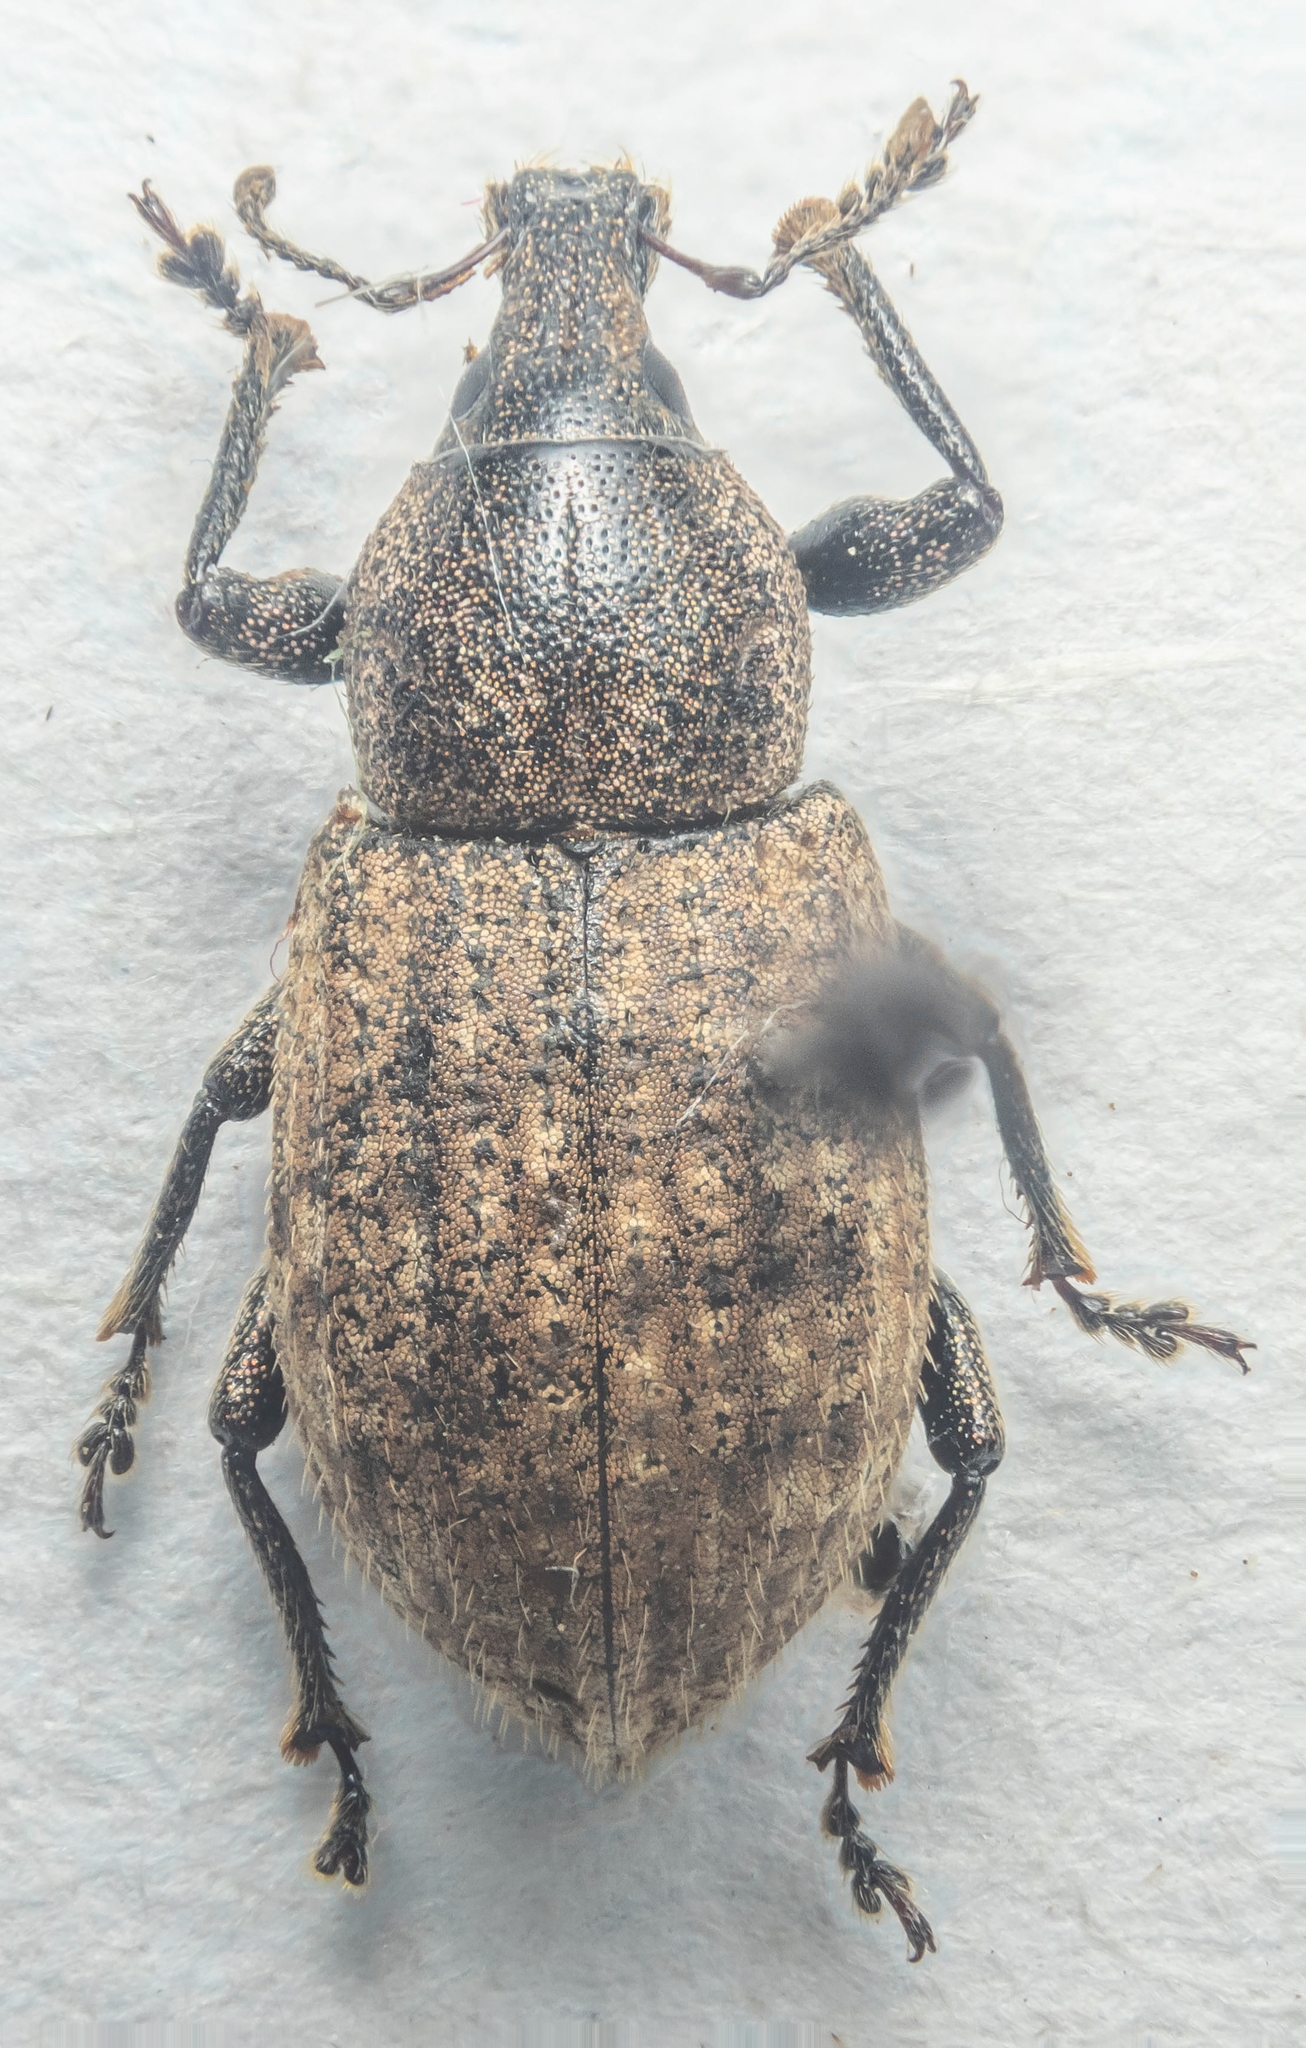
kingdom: Animalia
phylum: Arthropoda
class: Insecta
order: Coleoptera
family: Curculionidae
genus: Barynotus
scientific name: Barynotus obscurus
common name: Weevil
